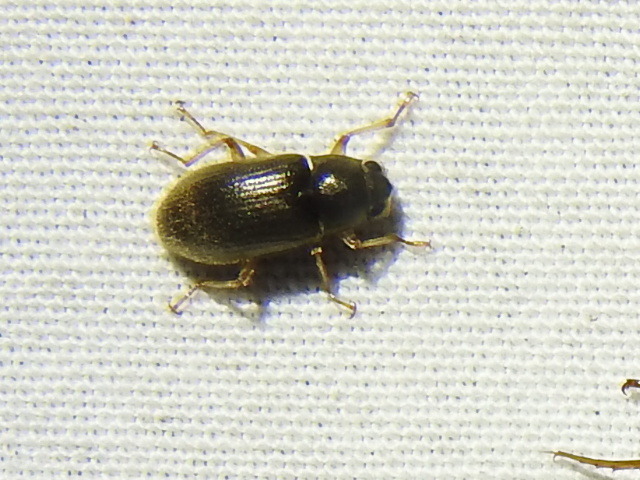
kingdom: Animalia
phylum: Arthropoda
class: Insecta
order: Coleoptera
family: Dryopidae
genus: Pelonomus
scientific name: Pelonomus obscurus
